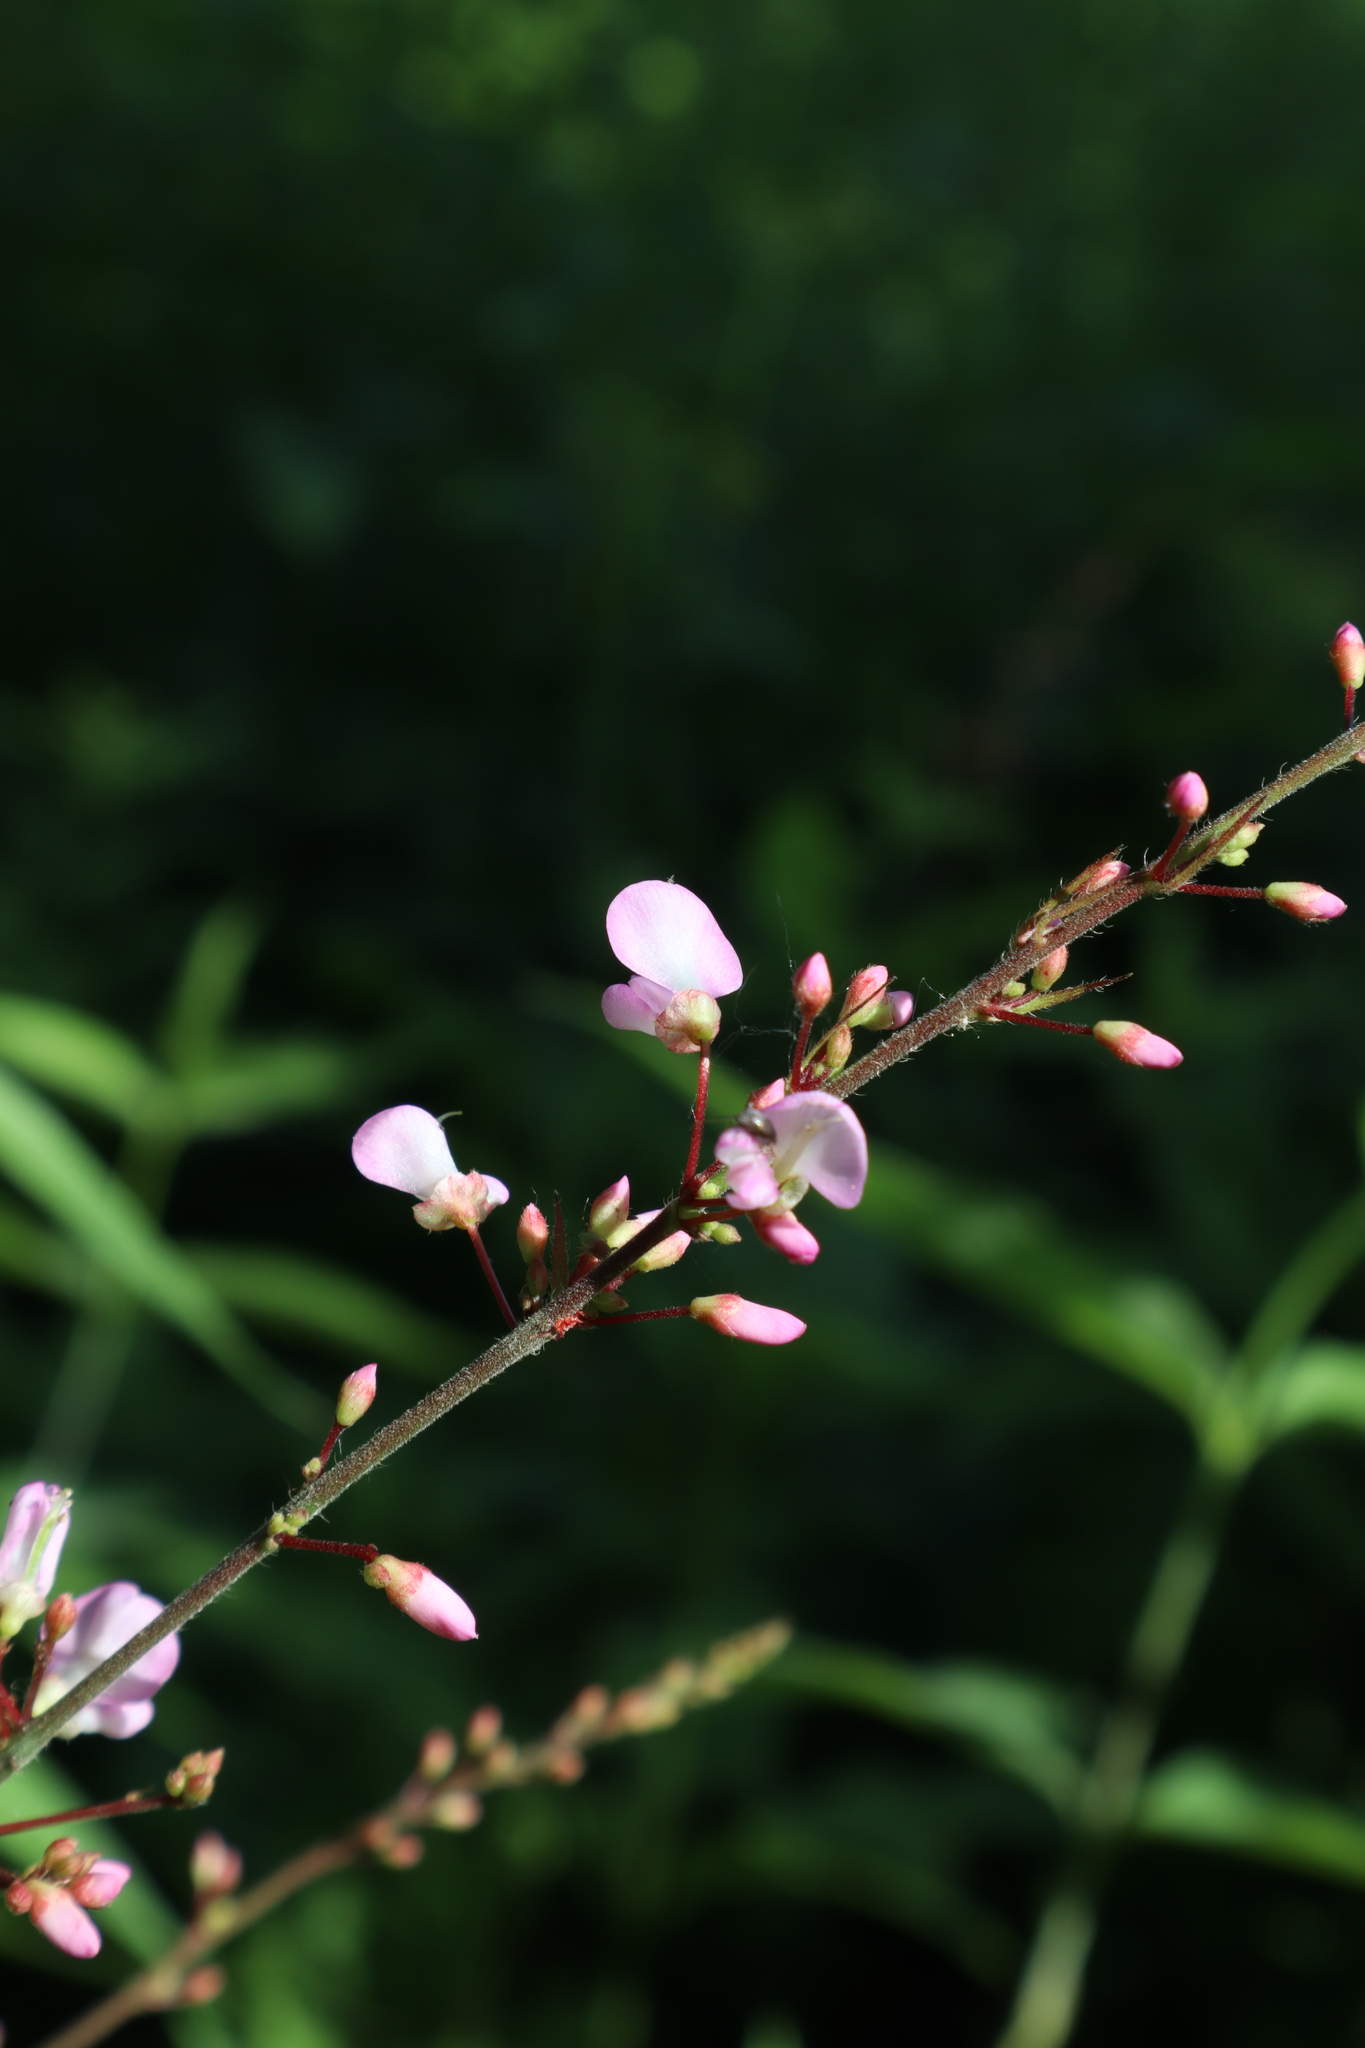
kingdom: Plantae
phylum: Tracheophyta
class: Magnoliopsida
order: Fabales
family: Fabaceae
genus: Hylodesmum
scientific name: Hylodesmum glutinosum
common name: Clustered-leaved tick-trefoil
